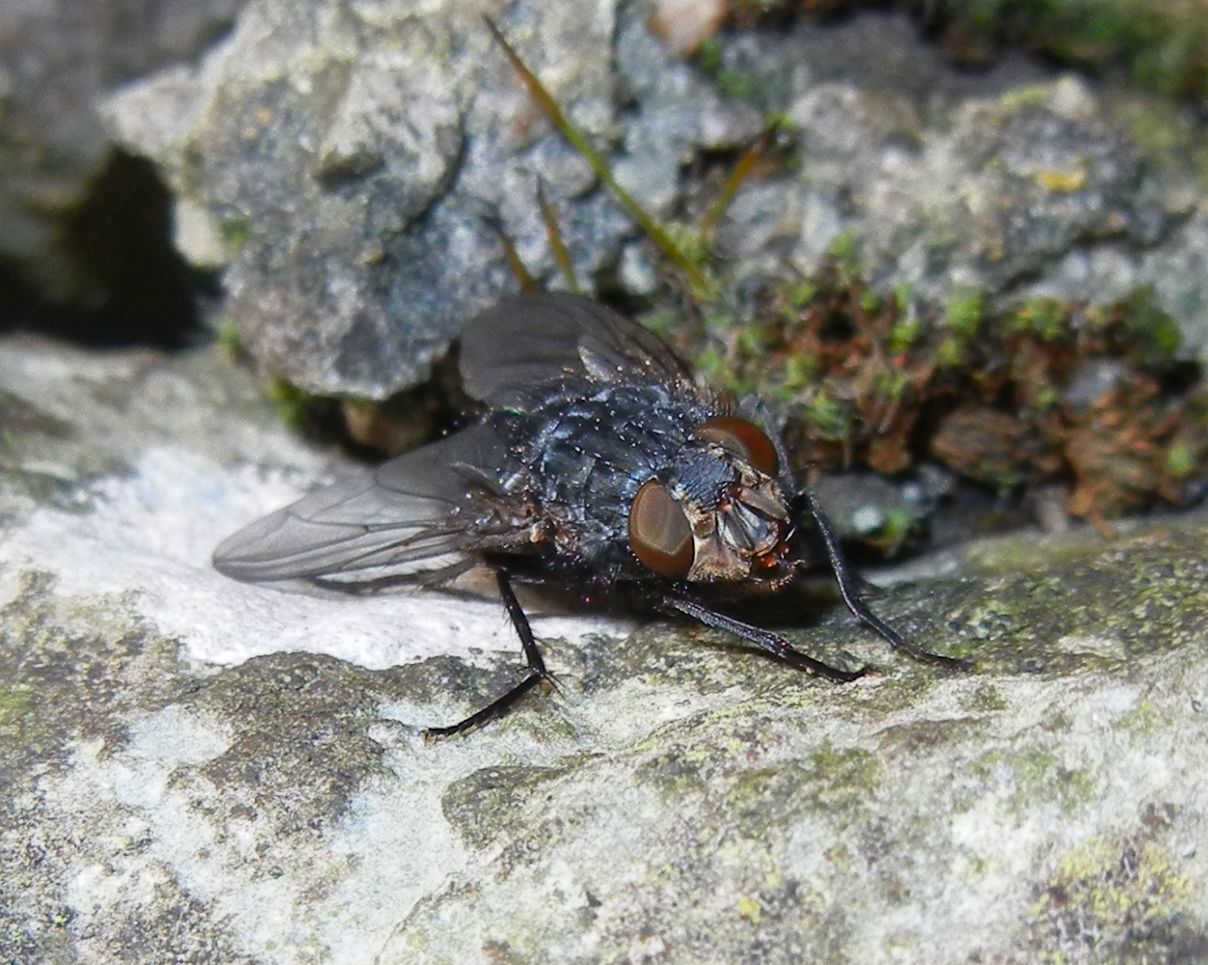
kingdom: Animalia
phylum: Arthropoda
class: Insecta
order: Diptera
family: Calliphoridae
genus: Calliphora
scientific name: Calliphora vicina
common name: Common blow flie
